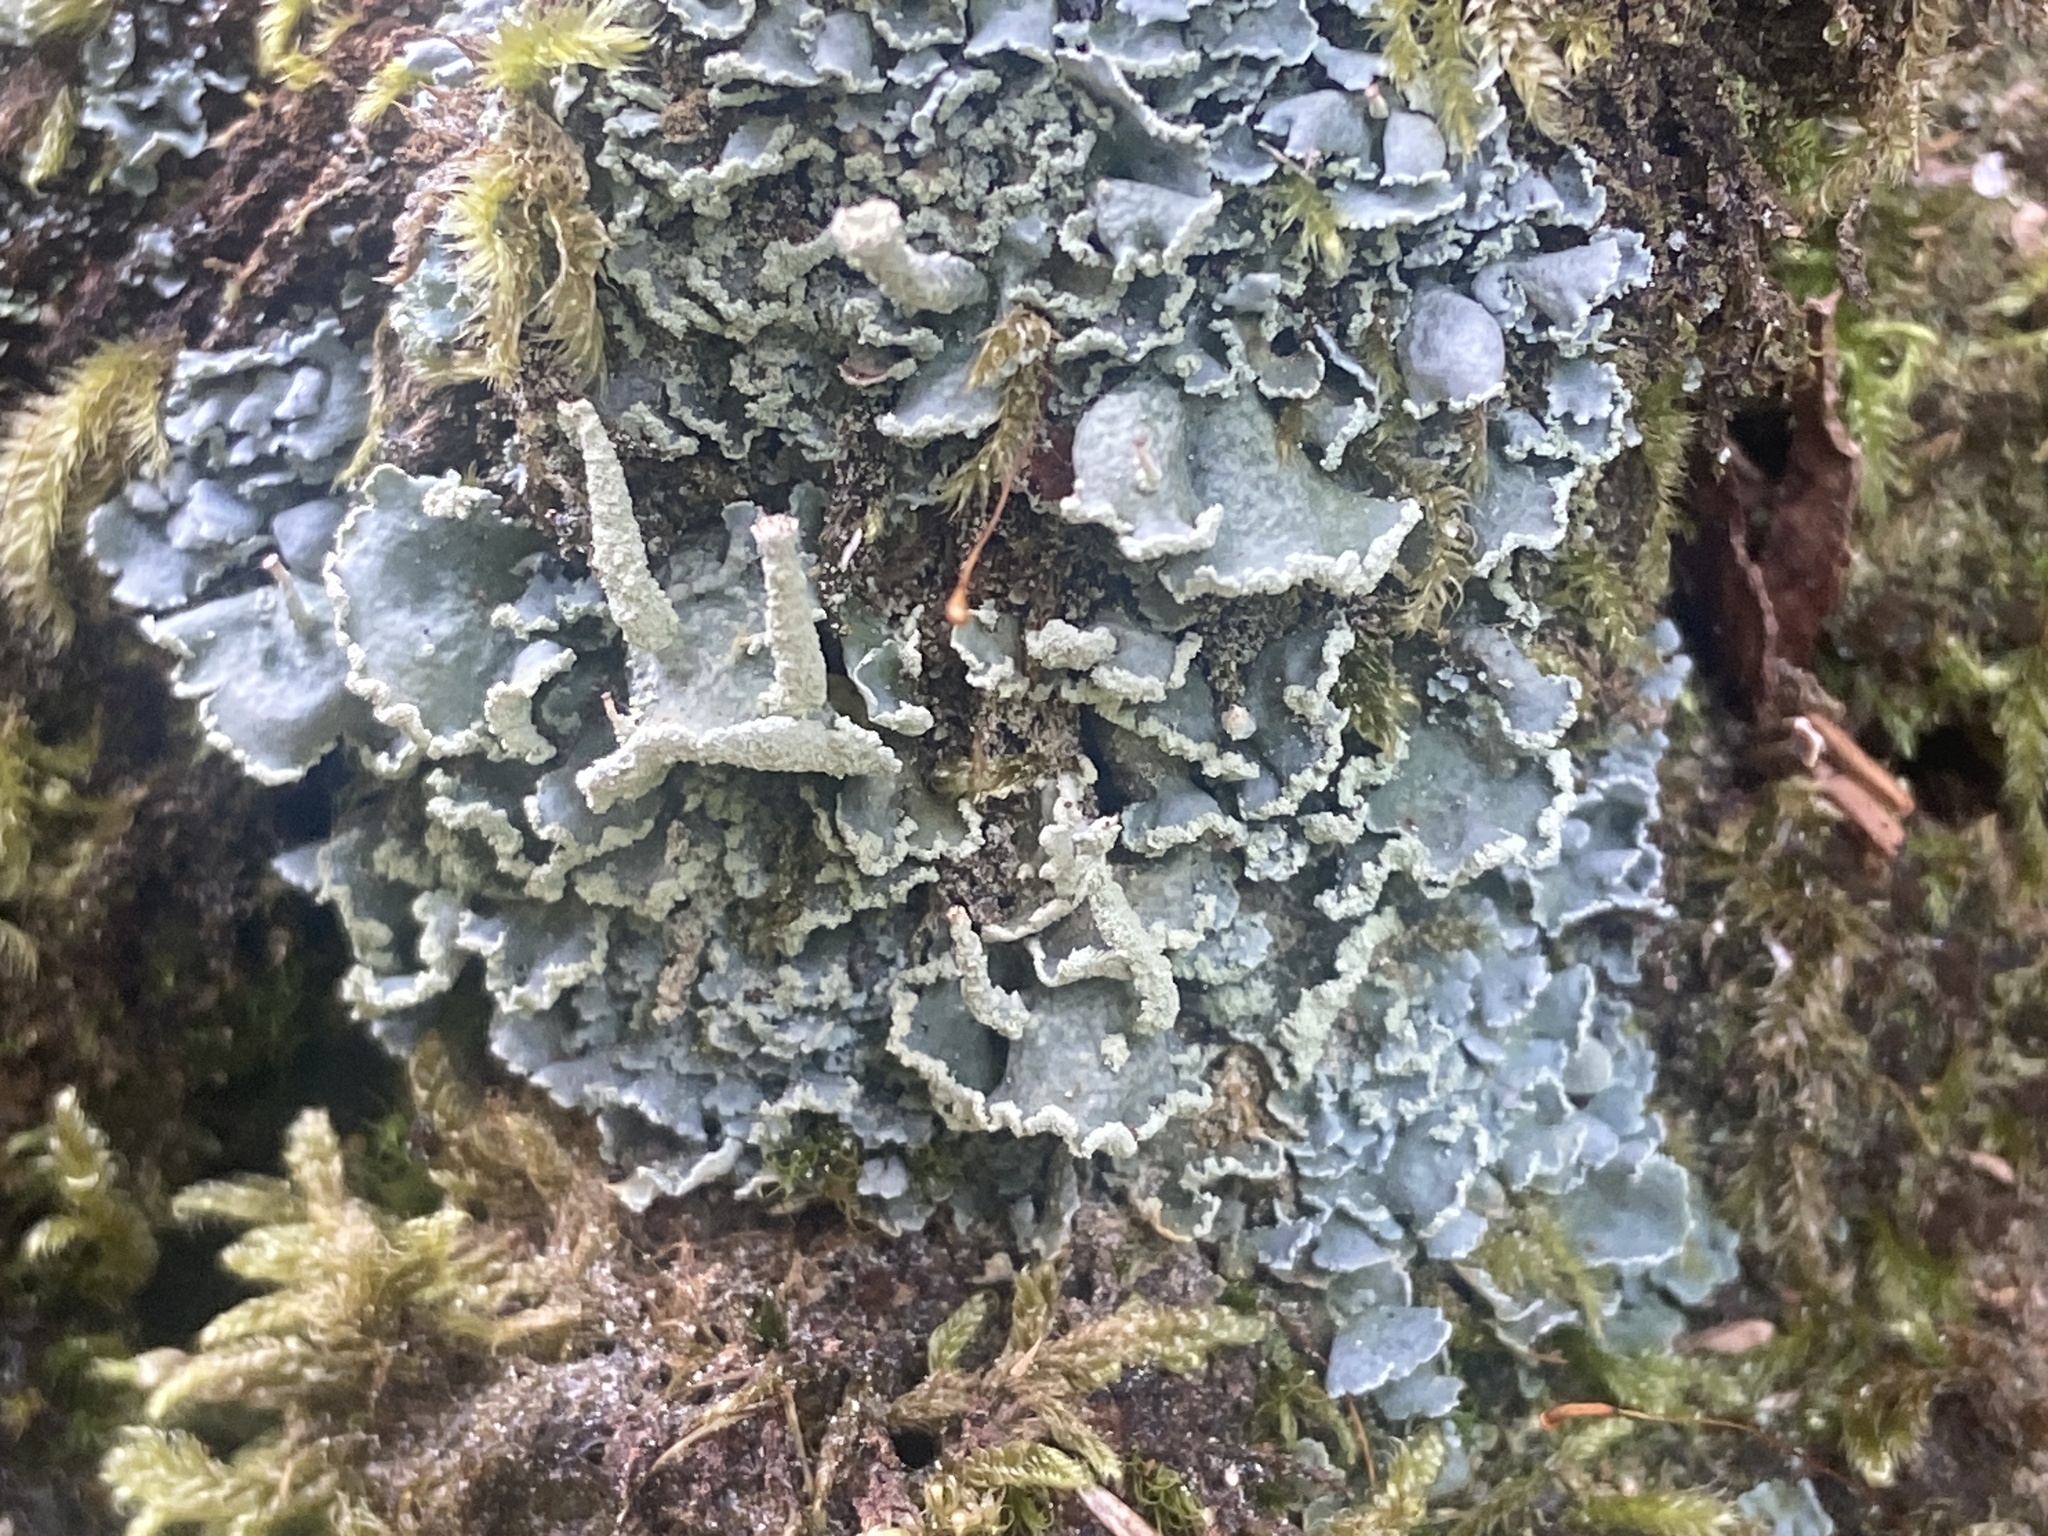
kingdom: Fungi
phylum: Ascomycota
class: Lecanoromycetes
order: Lecanorales
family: Cladoniaceae
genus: Cladonia
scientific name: Cladonia digitata
